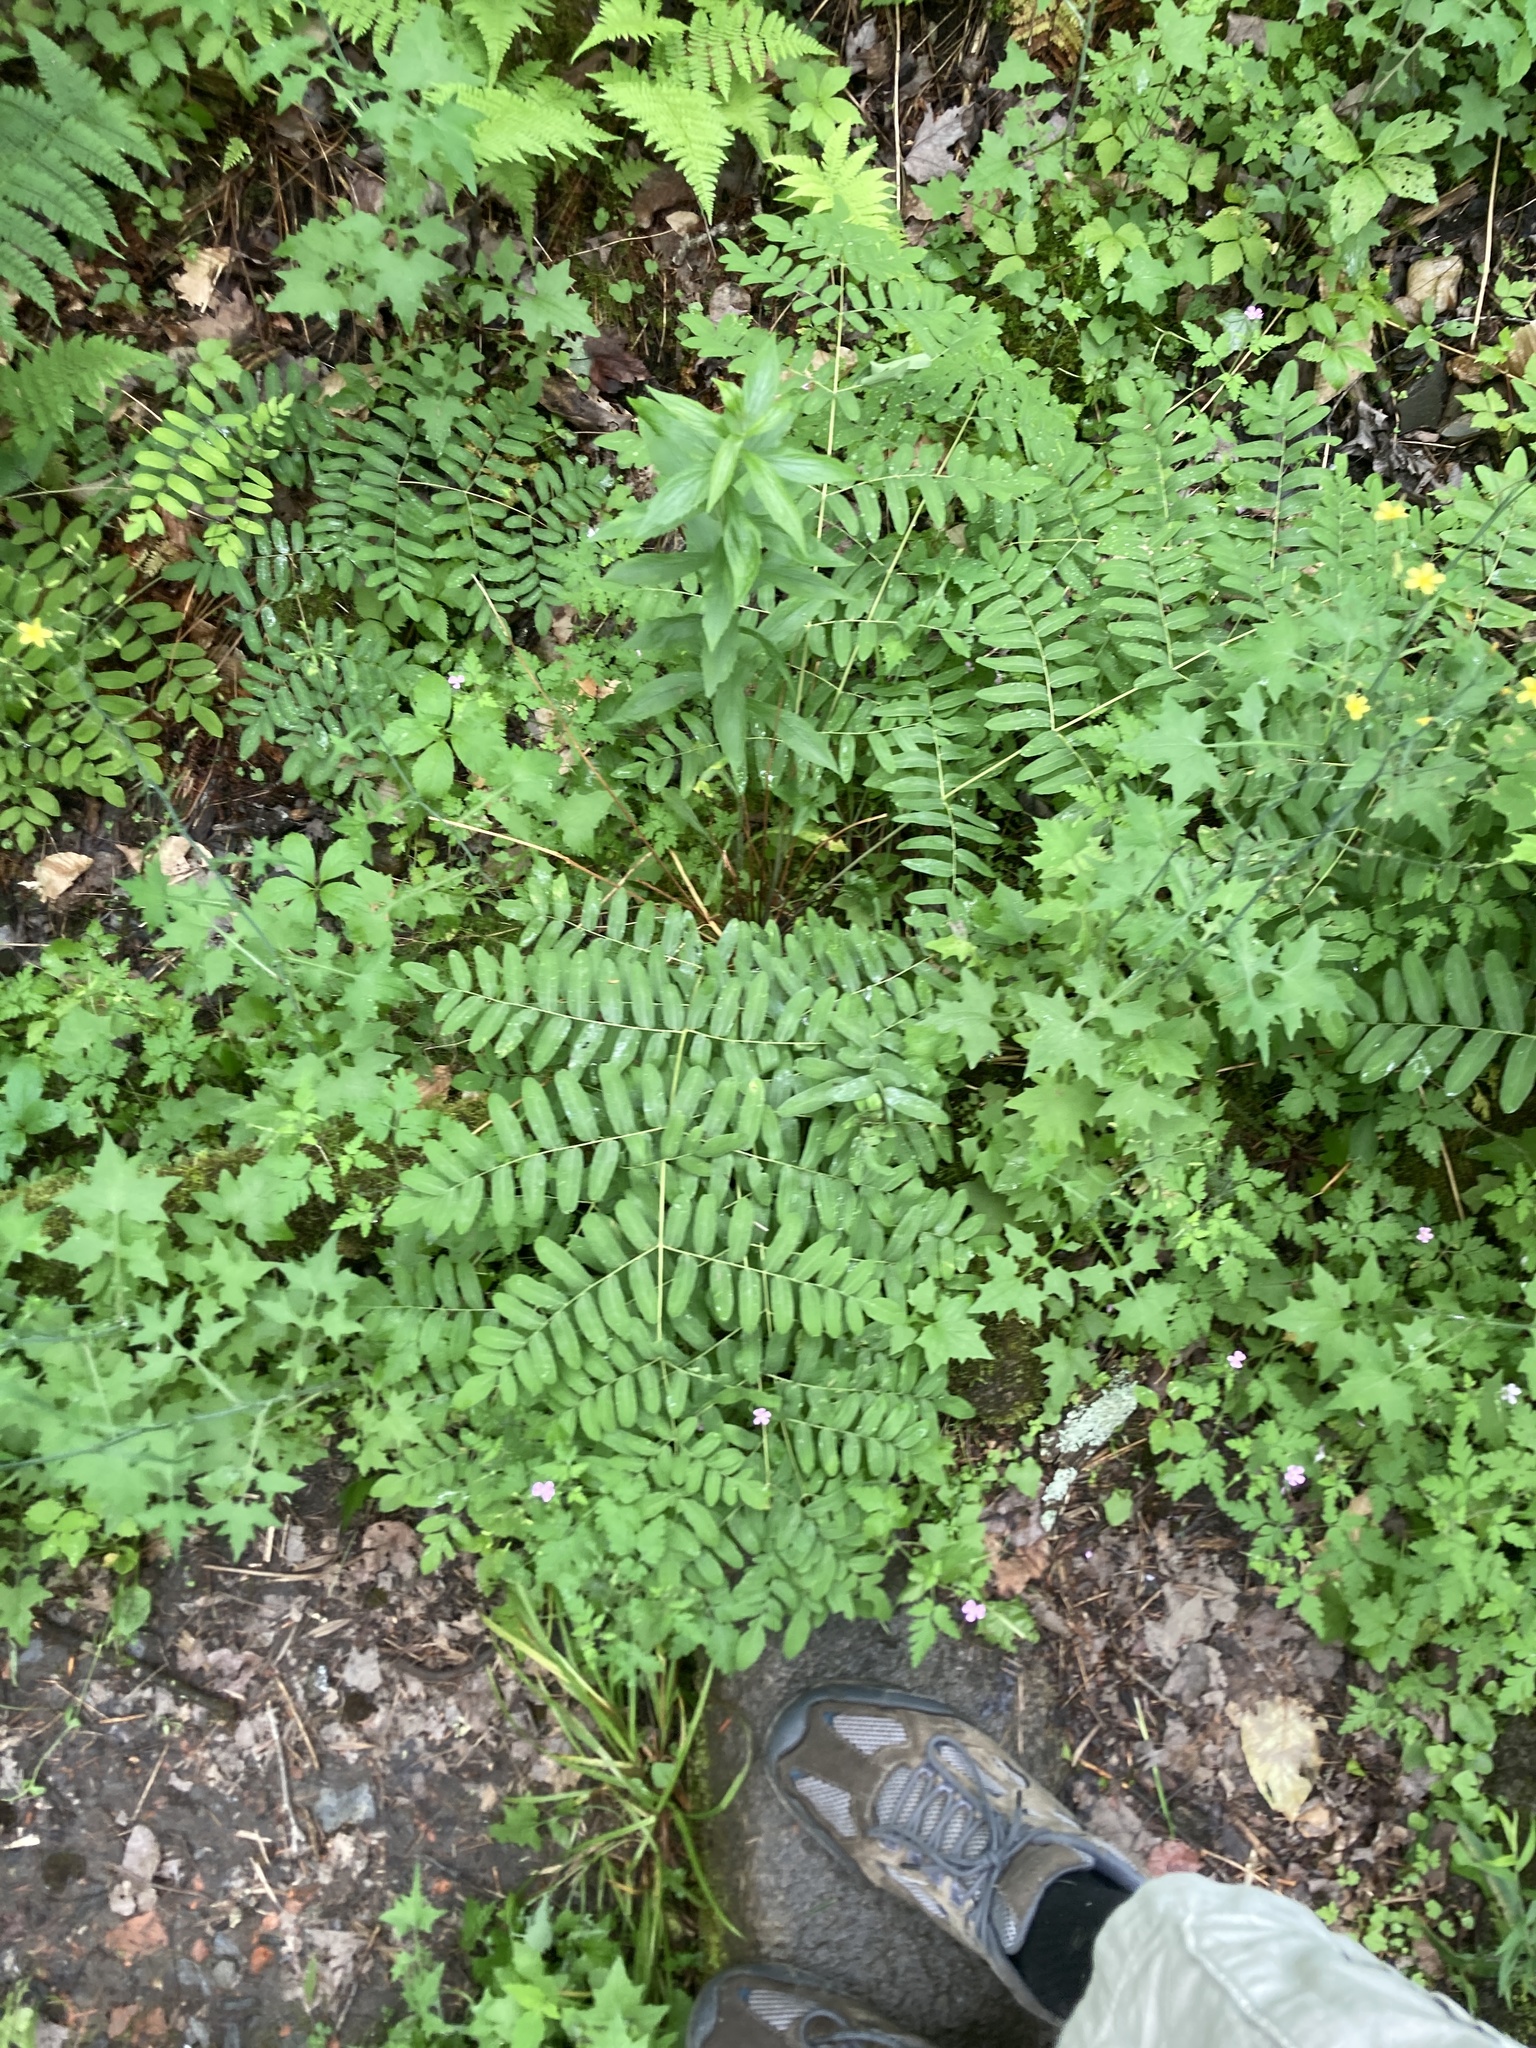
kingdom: Plantae
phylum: Tracheophyta
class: Polypodiopsida
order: Osmundales
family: Osmundaceae
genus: Osmunda
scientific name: Osmunda spectabilis
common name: American royal fern
